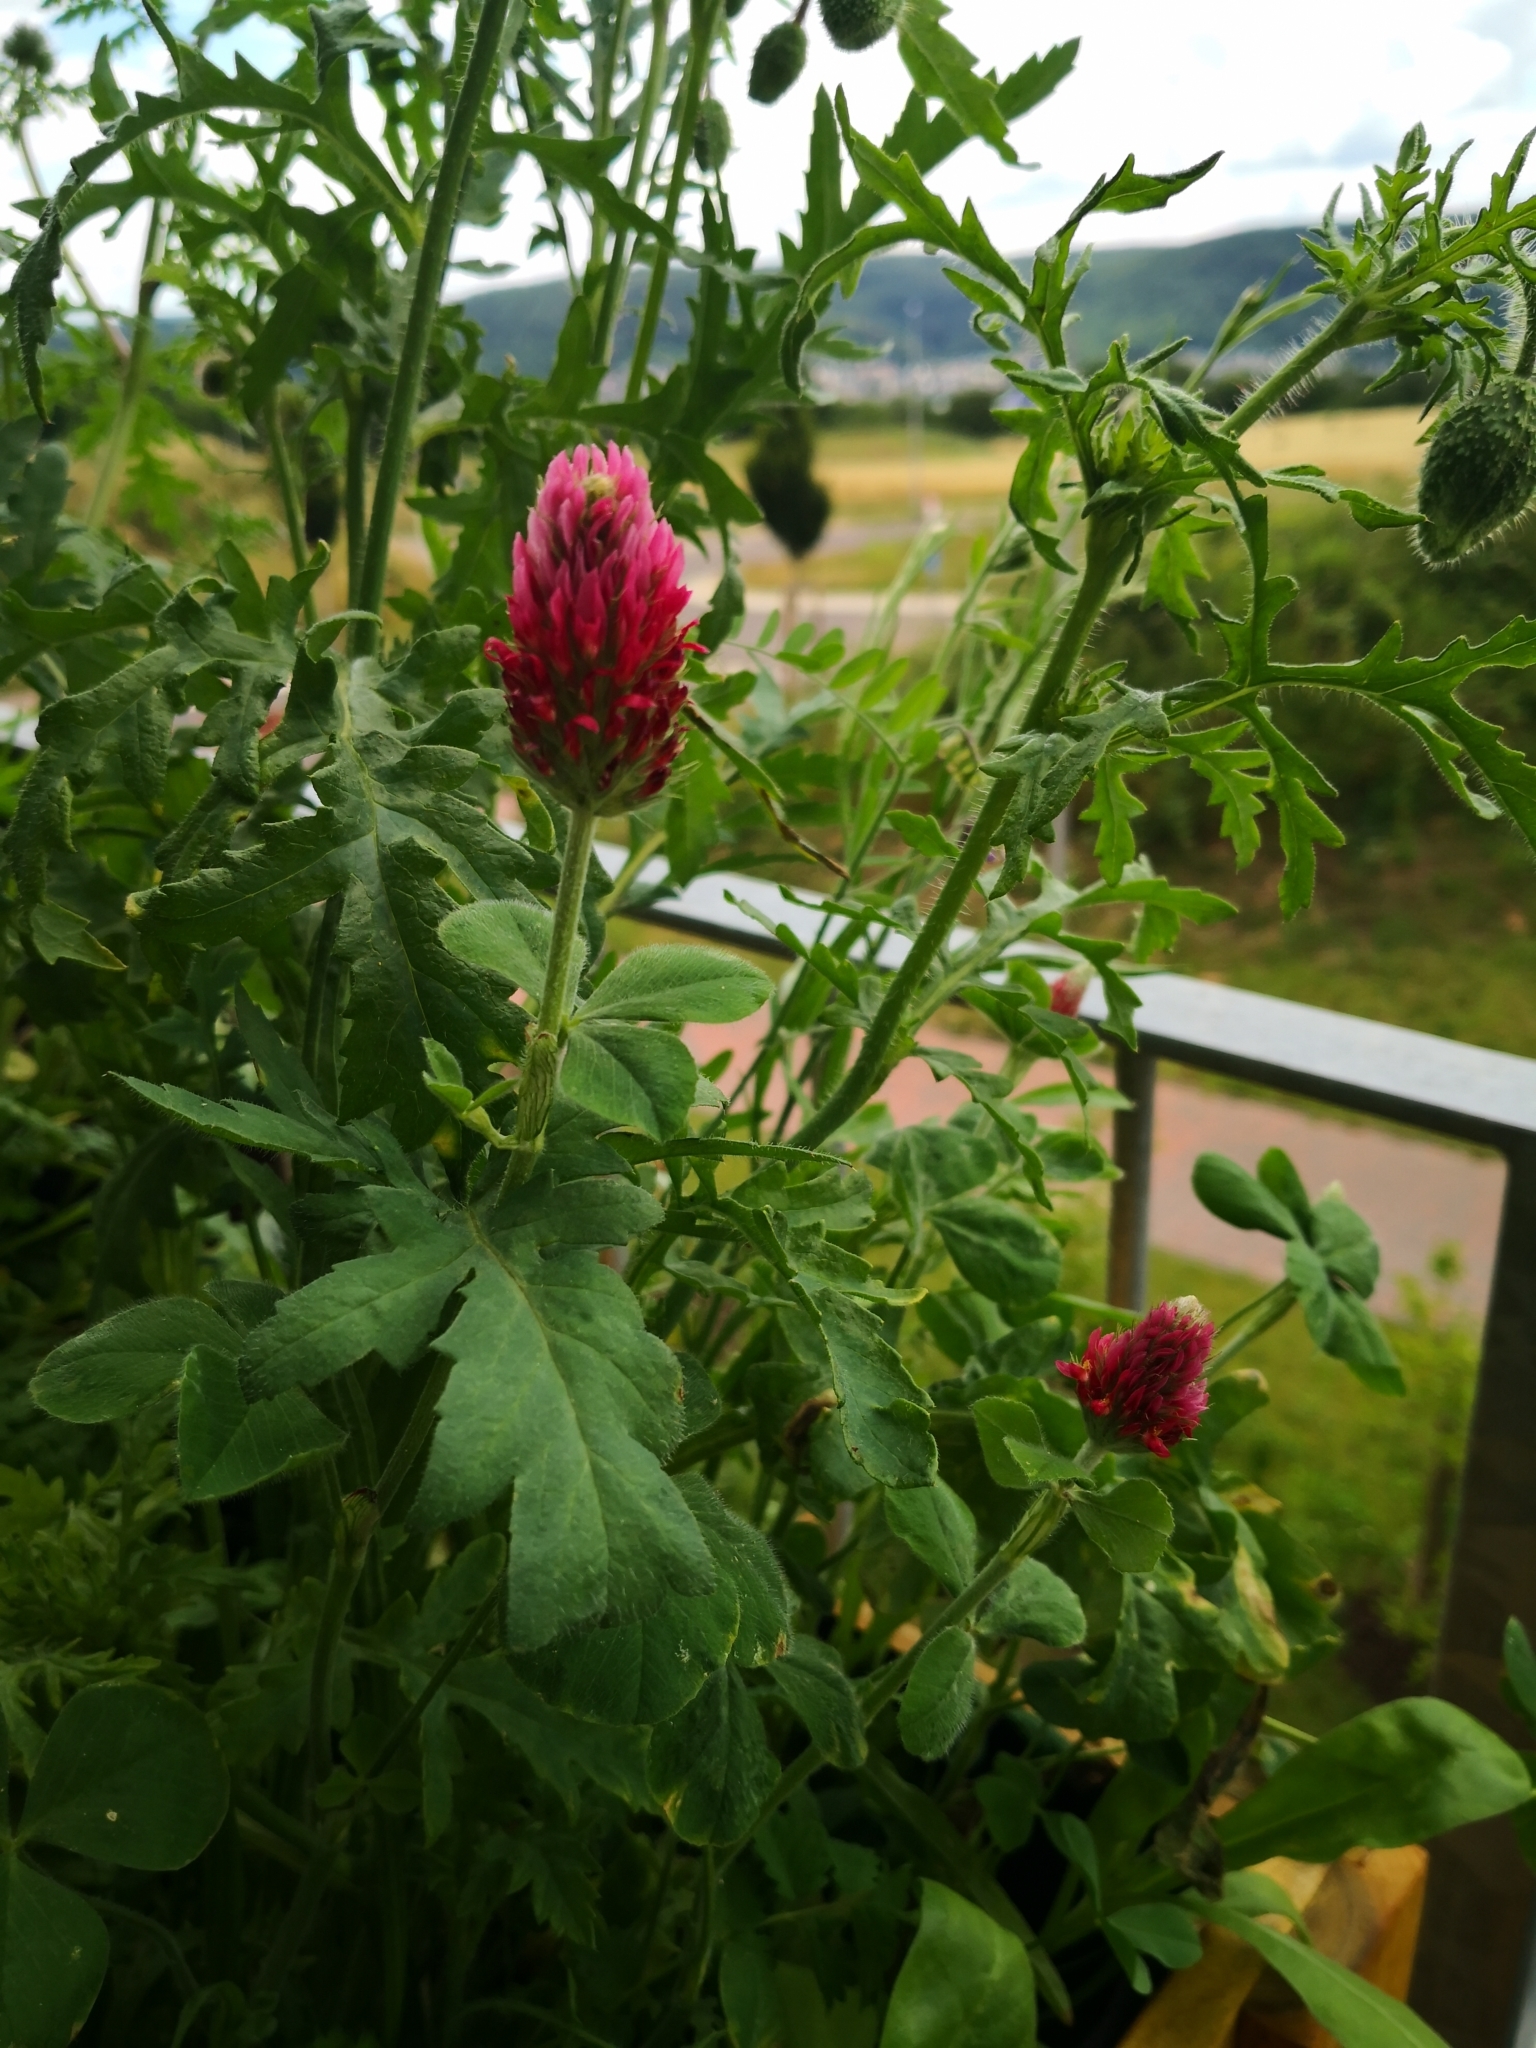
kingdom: Plantae
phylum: Tracheophyta
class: Magnoliopsida
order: Fabales
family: Fabaceae
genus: Trifolium
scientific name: Trifolium incarnatum
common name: Crimson clover
